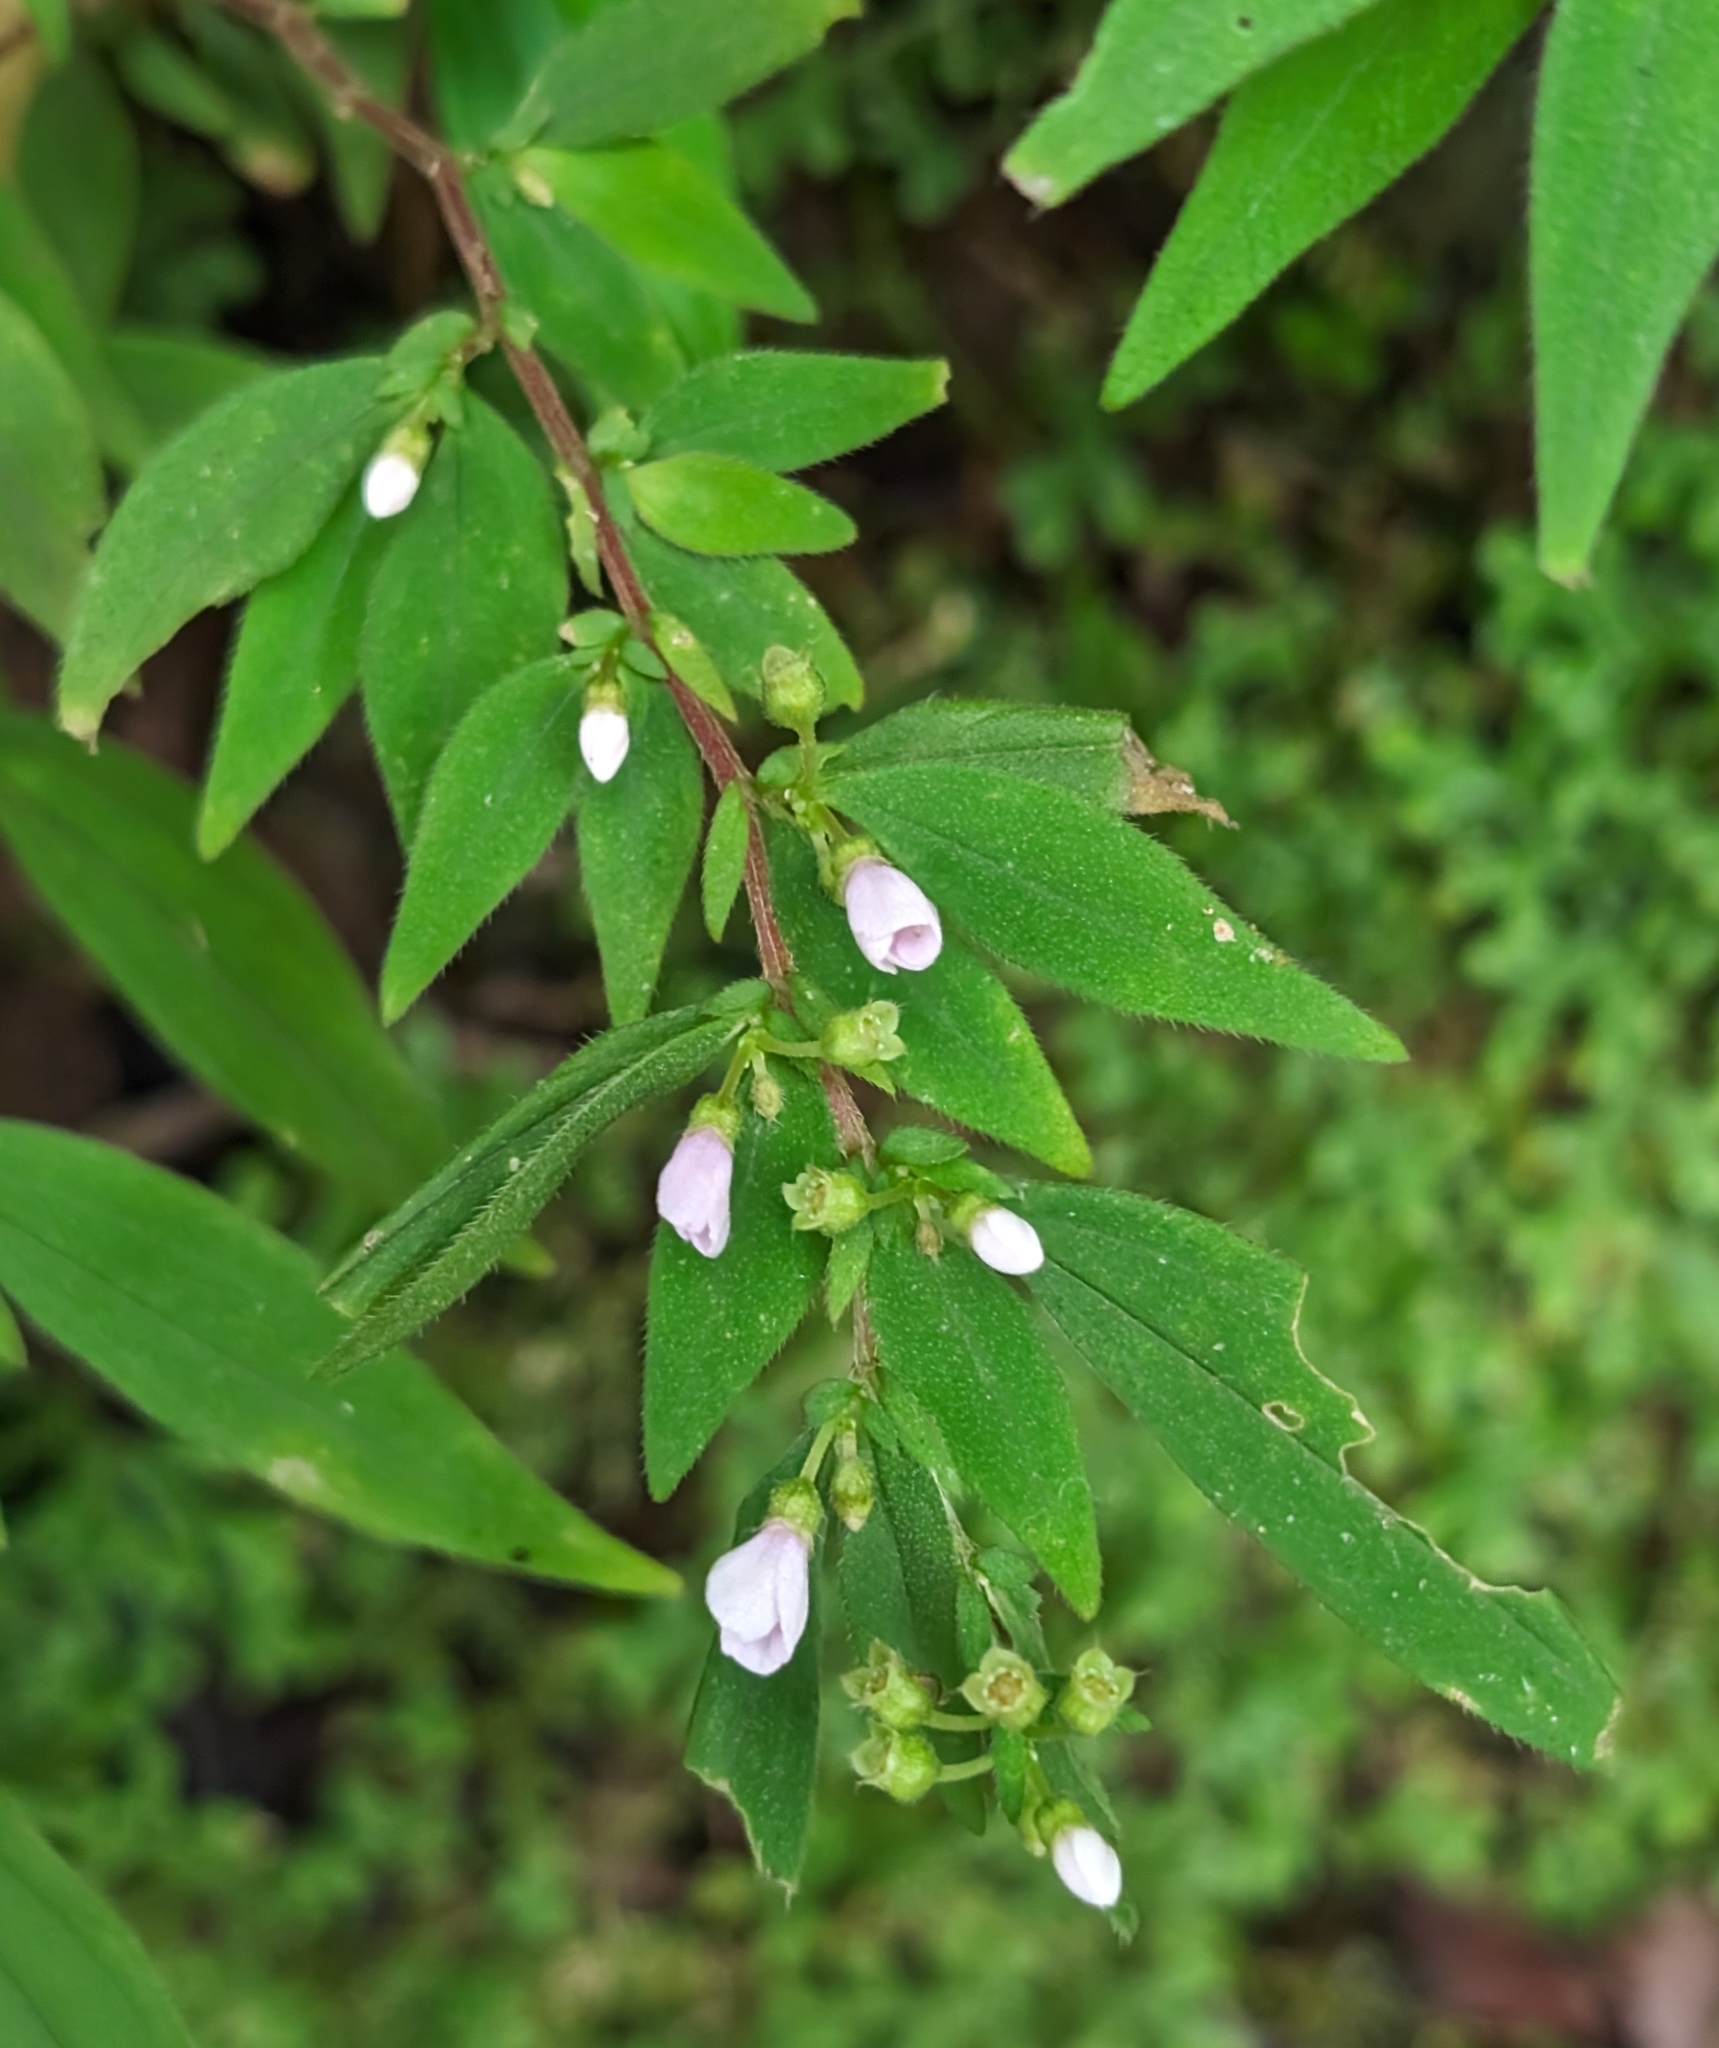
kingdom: Plantae
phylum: Tracheophyta
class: Magnoliopsida
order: Myrtales
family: Melastomataceae
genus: Centradenia
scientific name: Centradenia inaequilateralis
